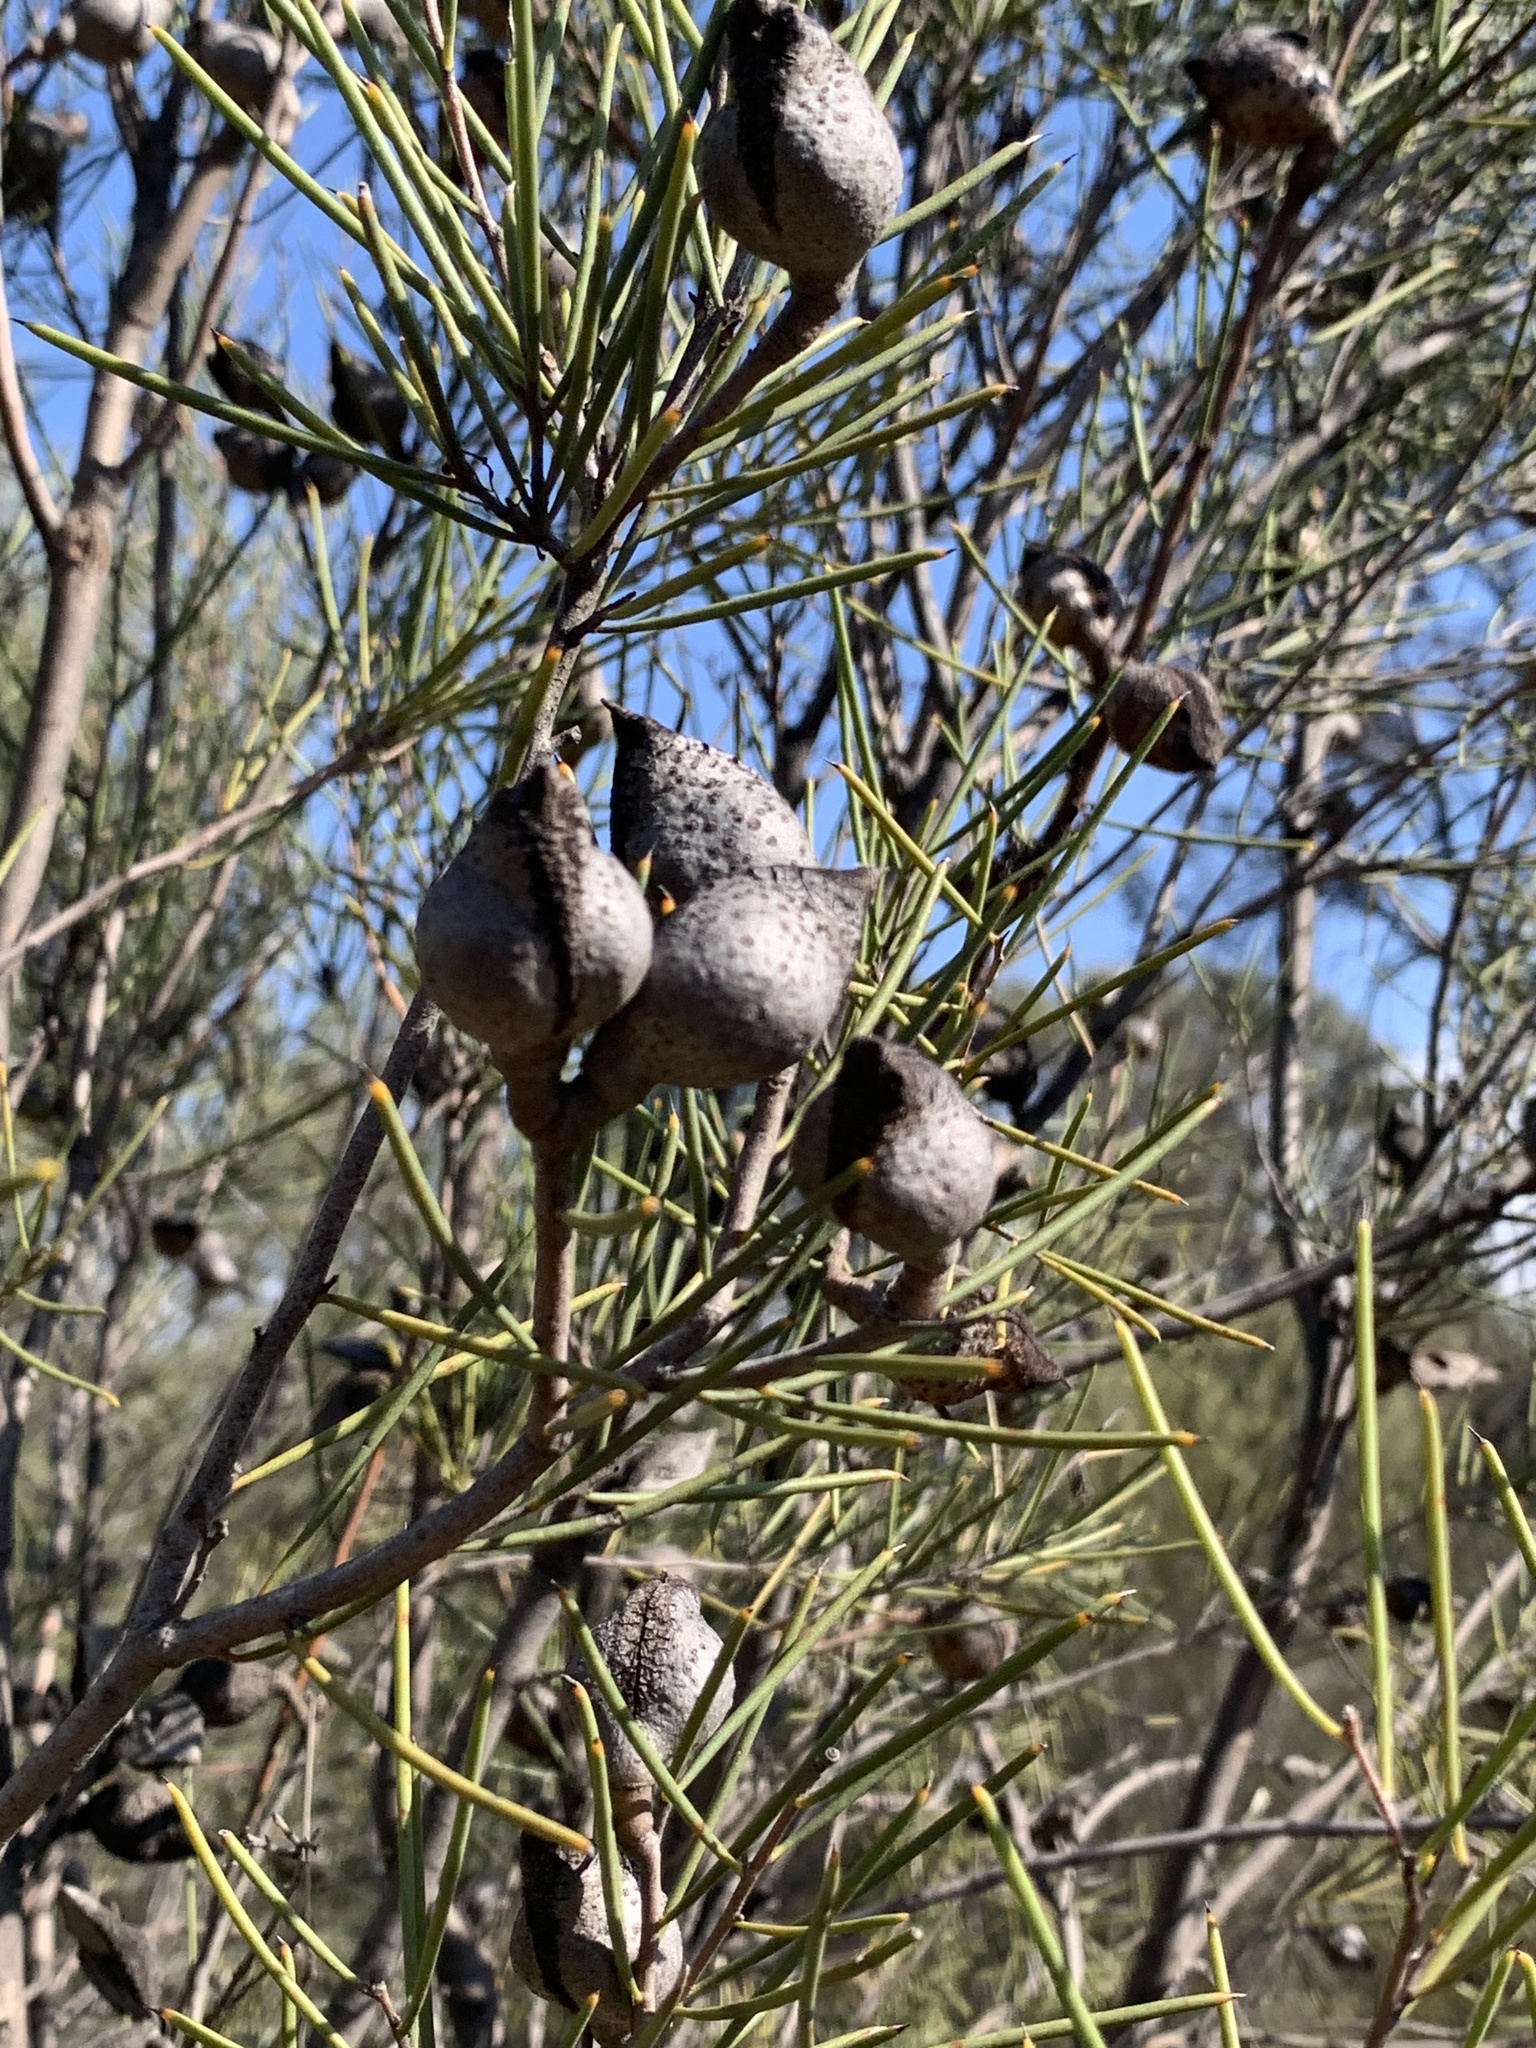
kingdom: Plantae
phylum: Tracheophyta
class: Magnoliopsida
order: Proteales
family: Proteaceae
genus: Hakea
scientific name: Hakea tephrosperma
